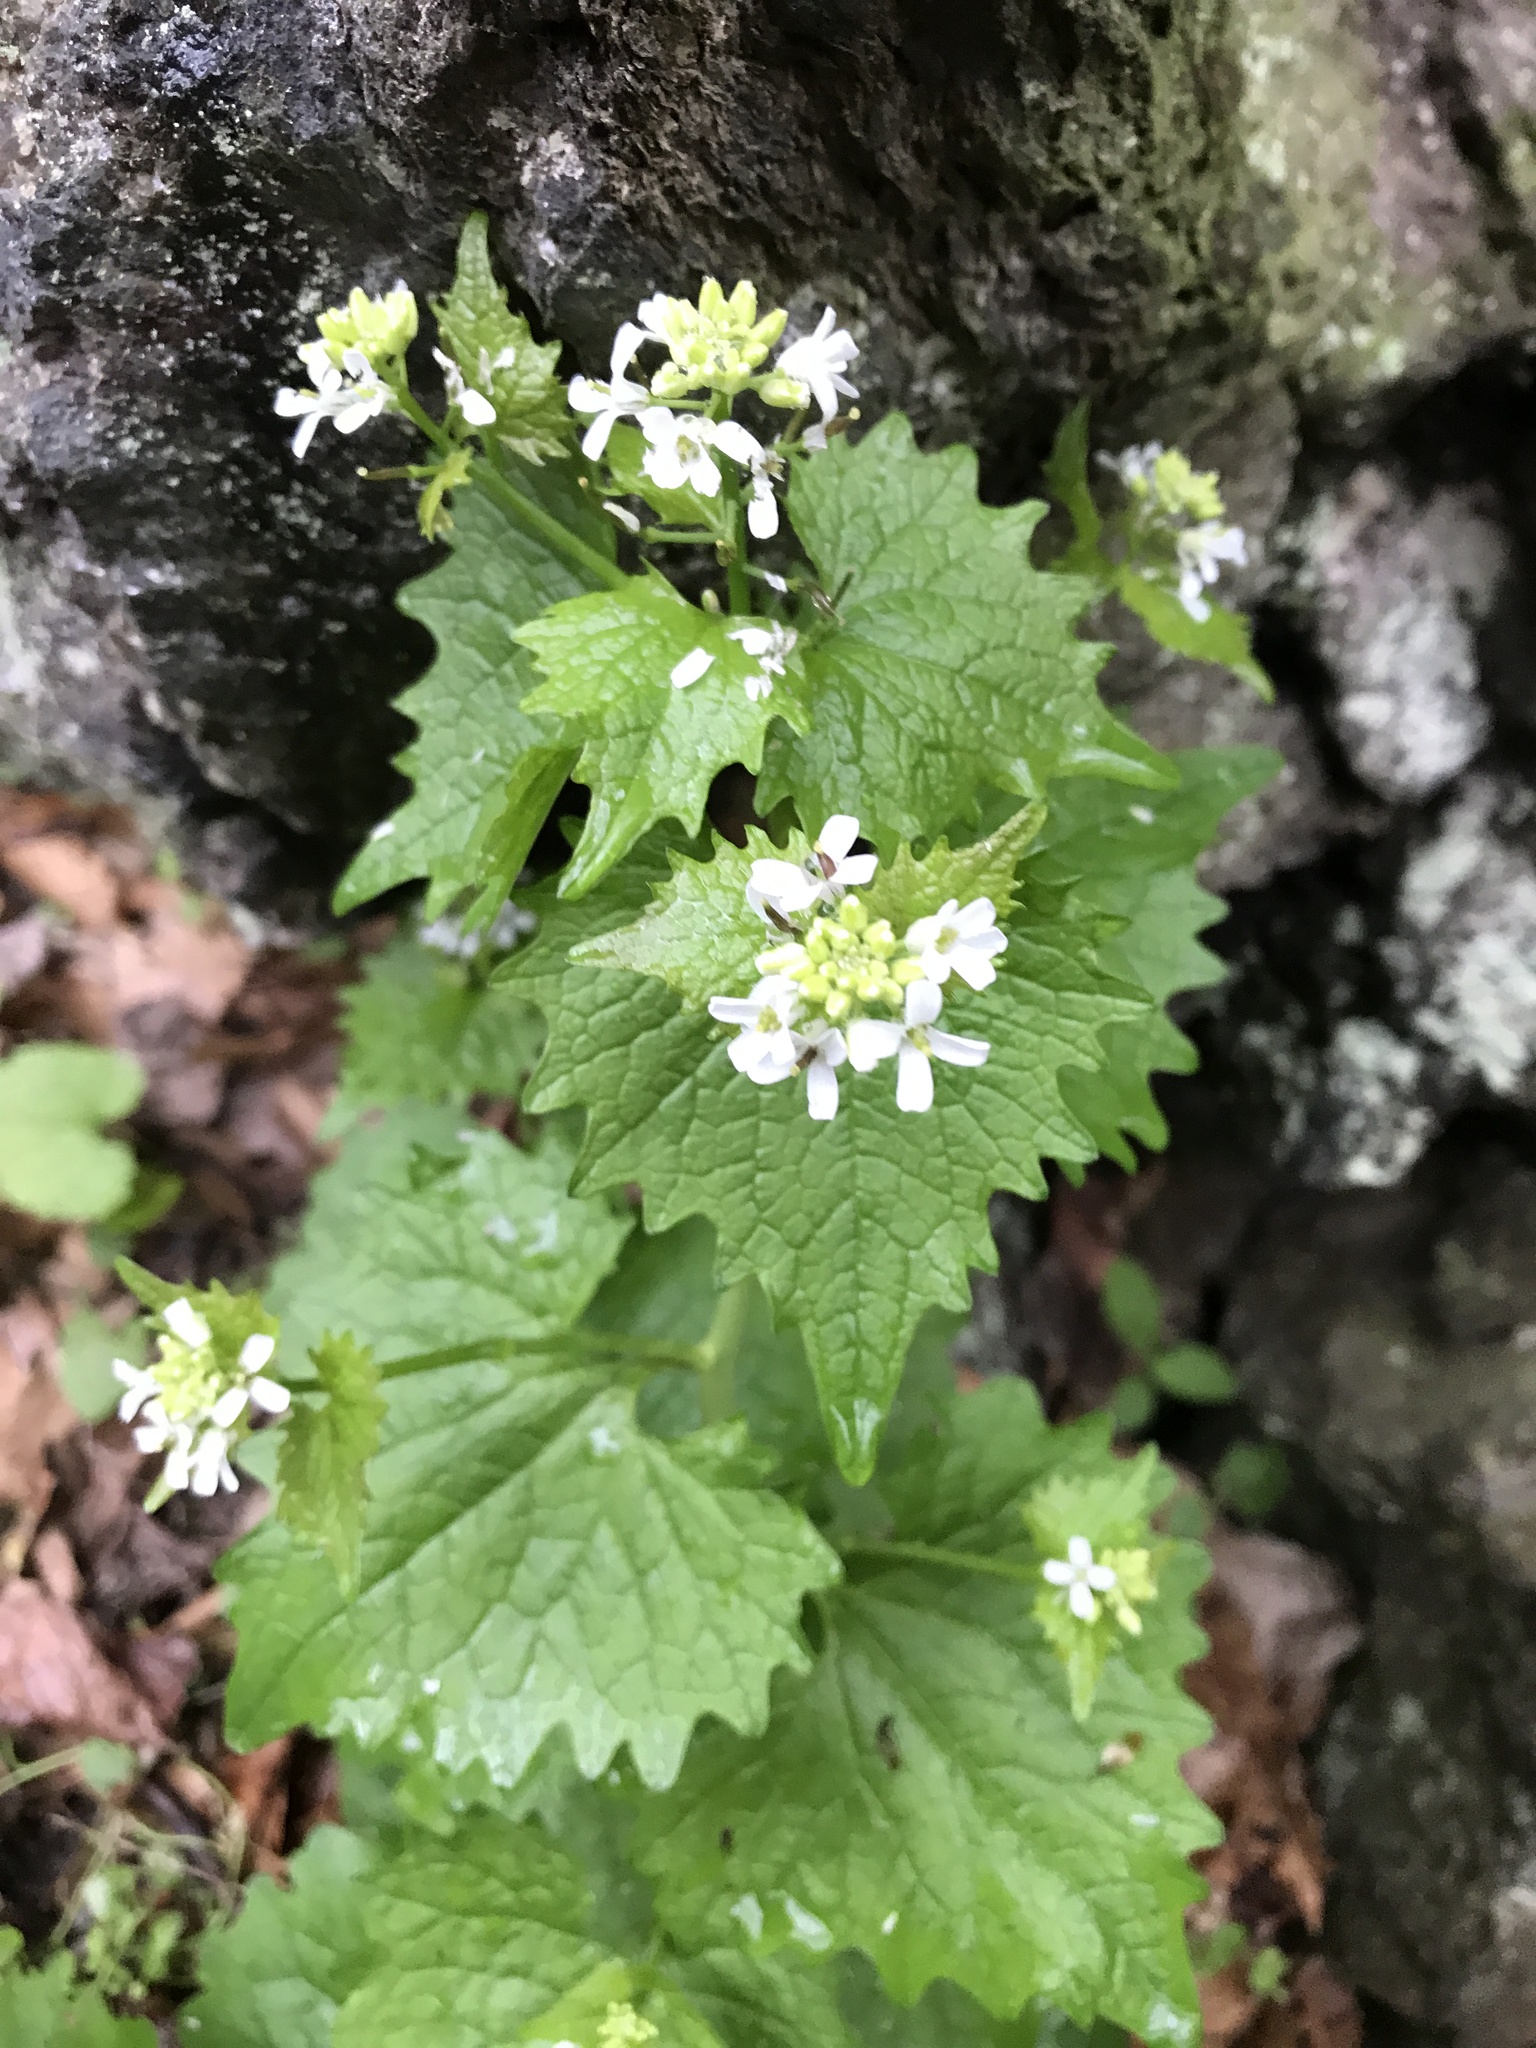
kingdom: Plantae
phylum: Tracheophyta
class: Magnoliopsida
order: Brassicales
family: Brassicaceae
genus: Alliaria
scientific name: Alliaria petiolata
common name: Garlic mustard
